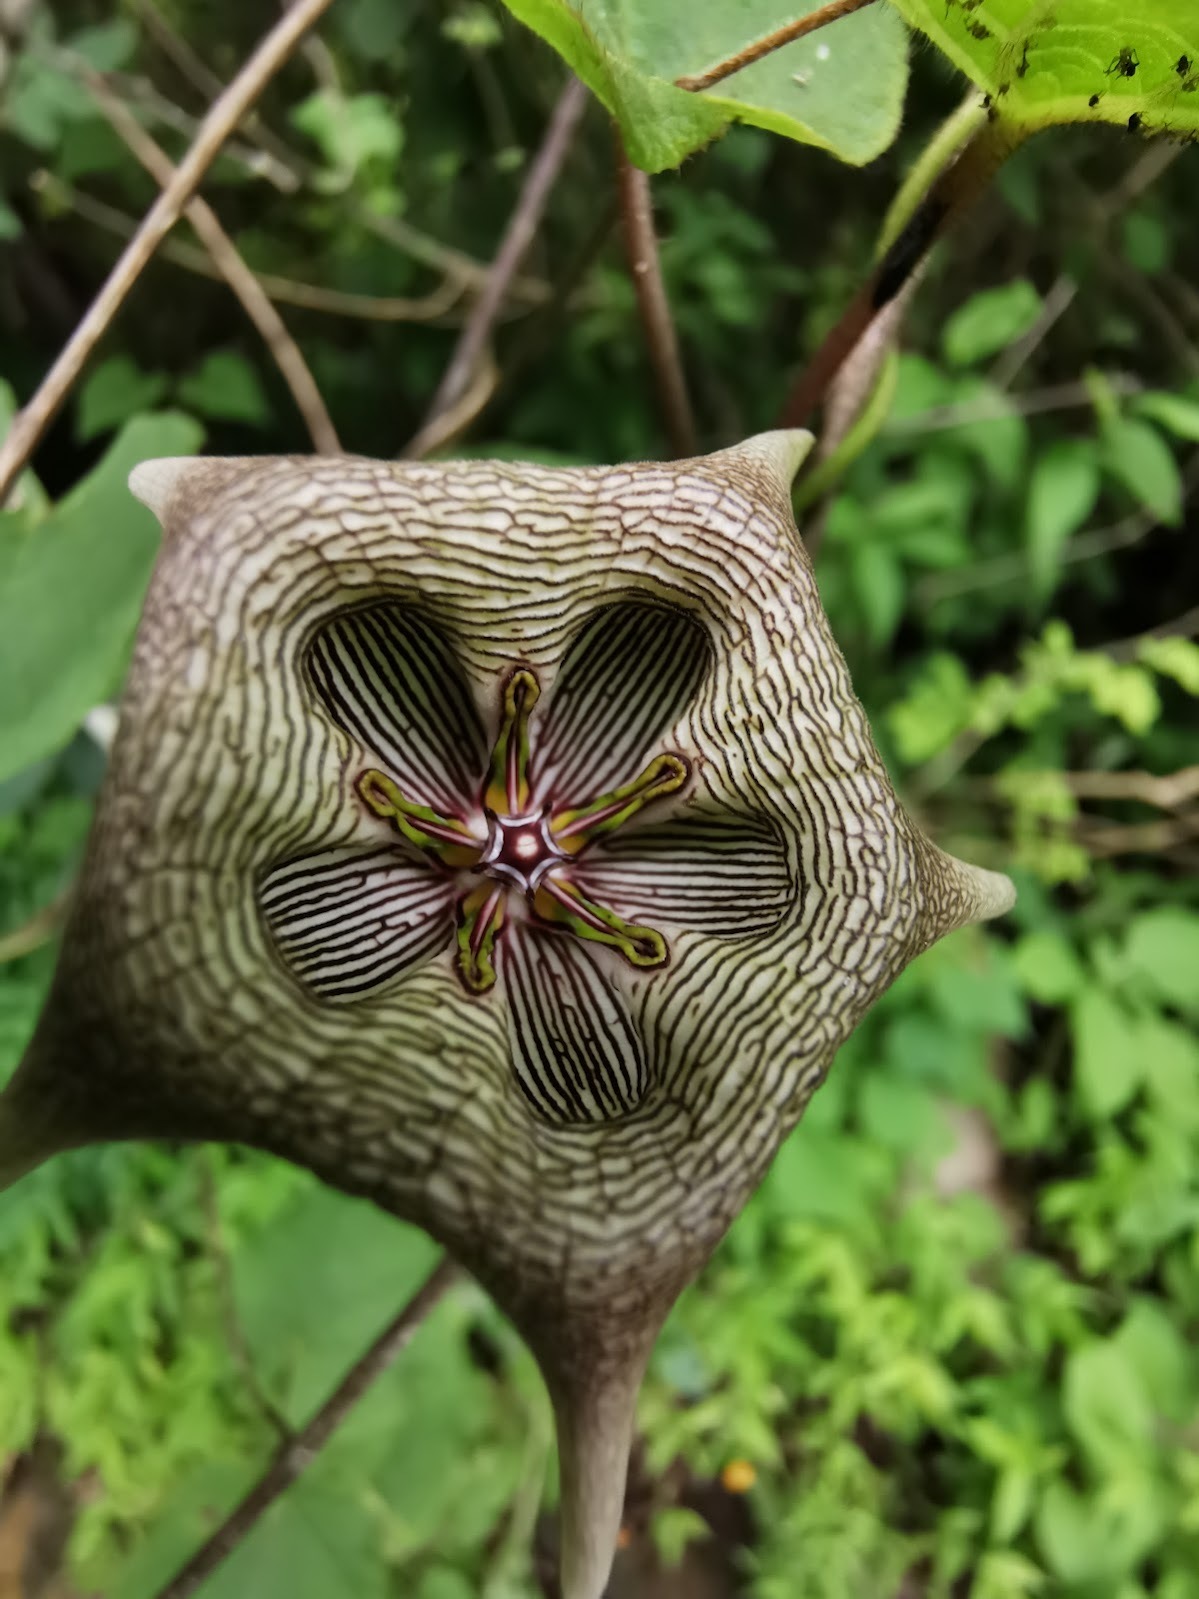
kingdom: Plantae
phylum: Tracheophyta
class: Magnoliopsida
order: Gentianales
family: Apocynaceae
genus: Dictyanthus
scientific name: Dictyanthus pavonii
